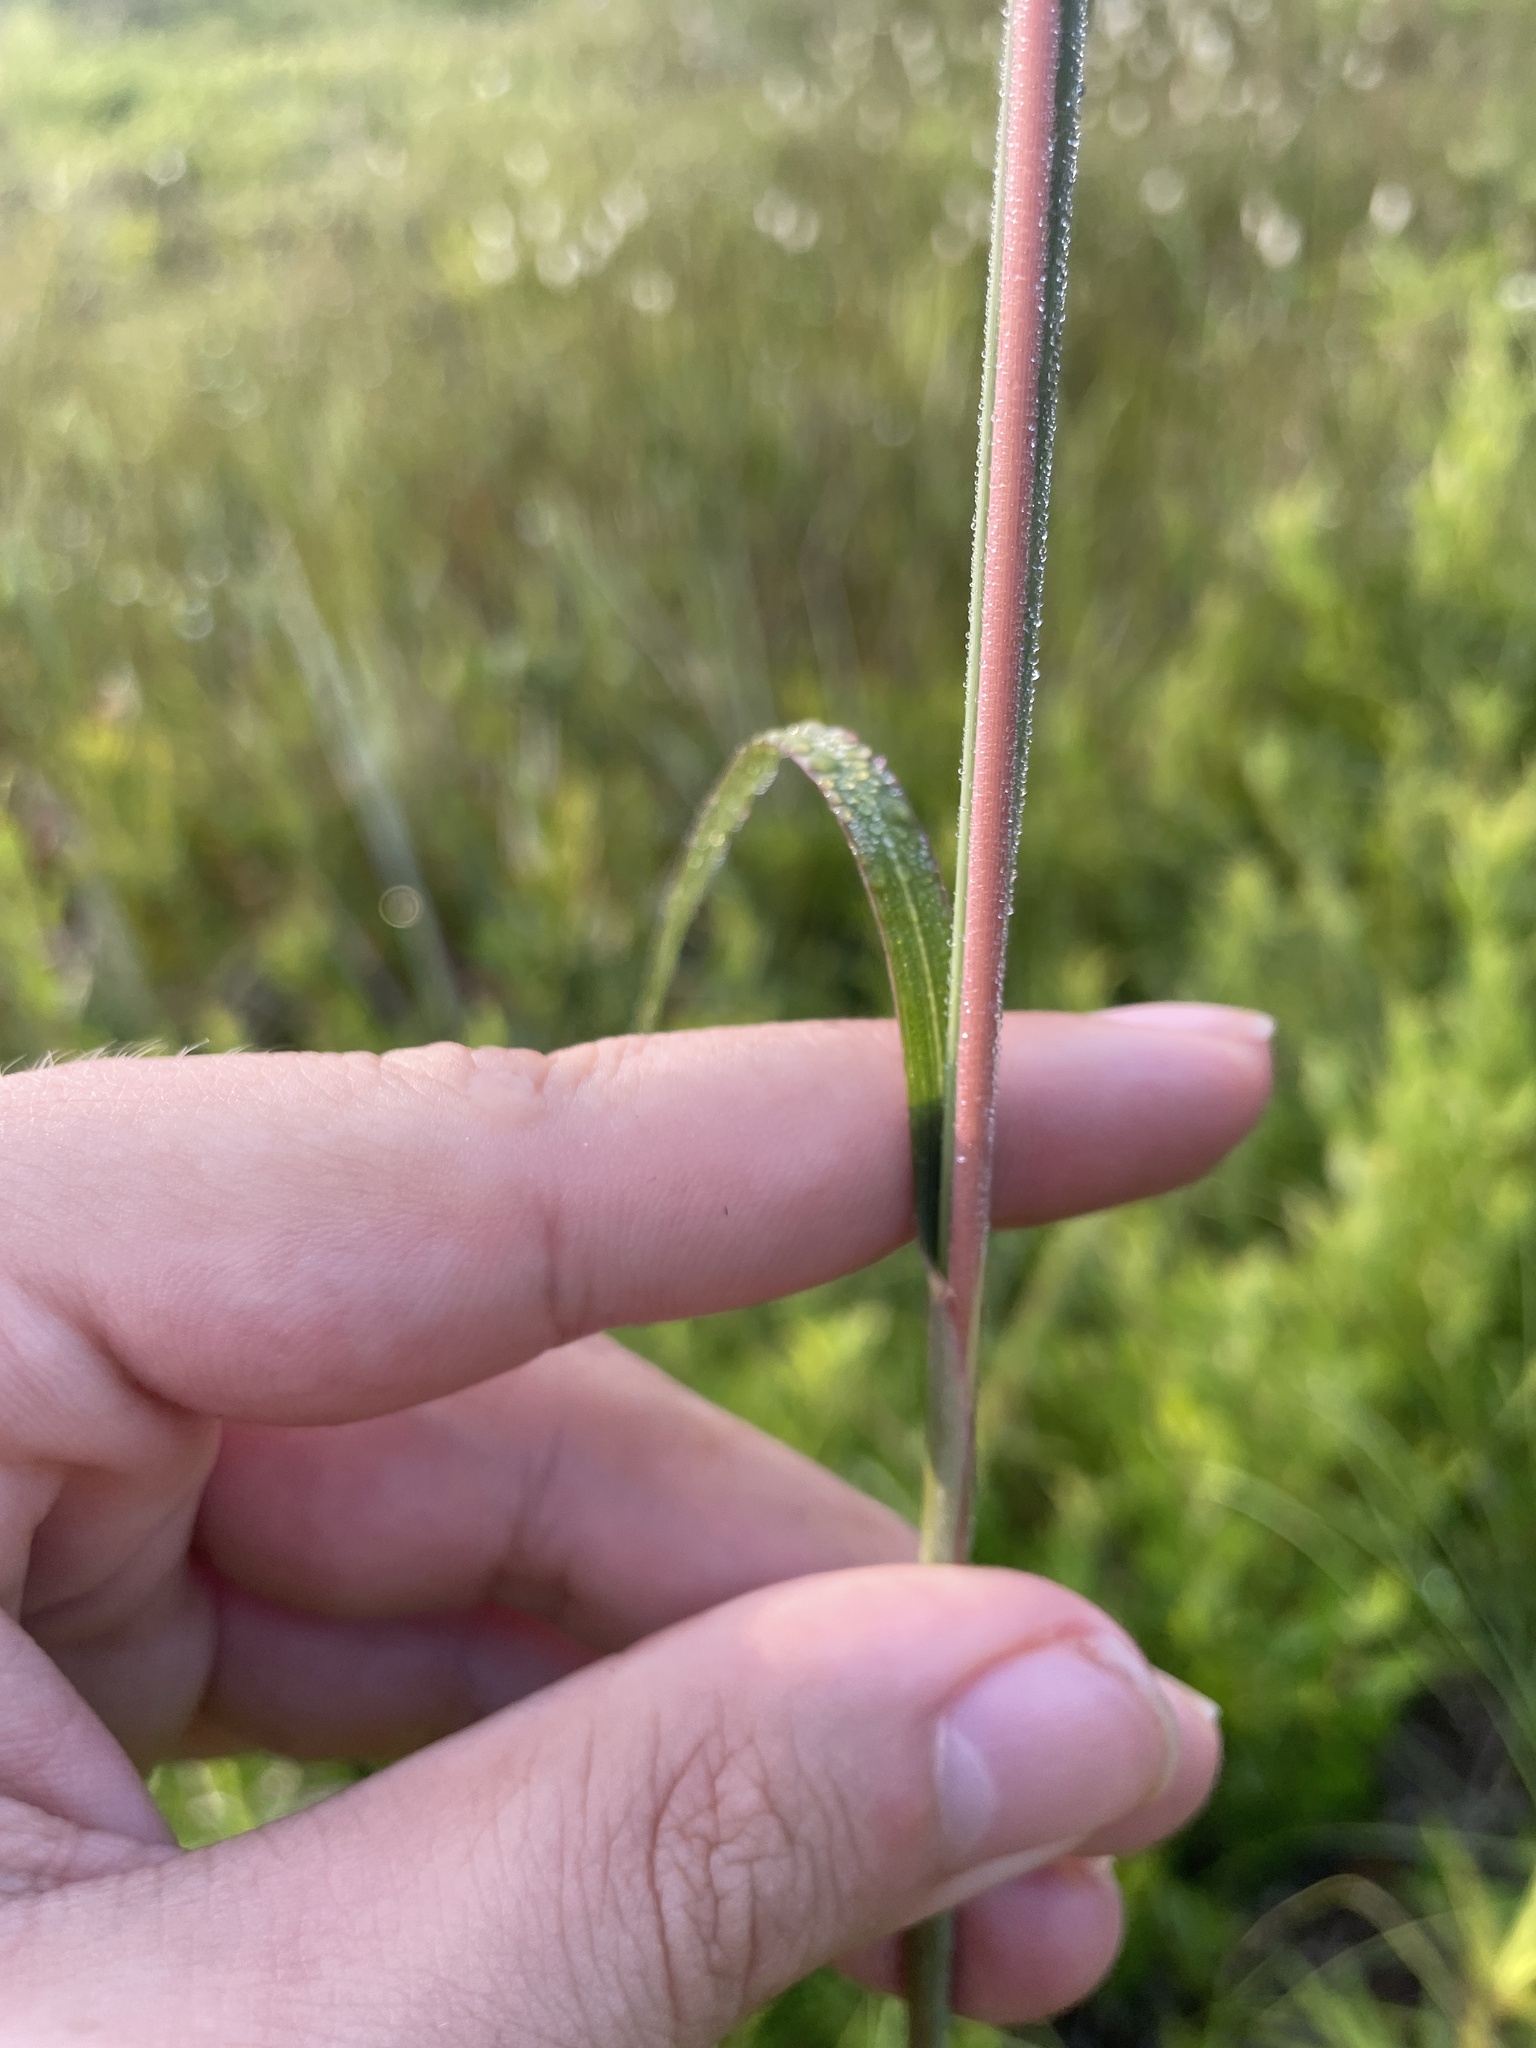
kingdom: Plantae
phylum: Tracheophyta
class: Liliopsida
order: Poales
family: Poaceae
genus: Andropogon
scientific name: Andropogon gerardi
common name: Big bluestem
